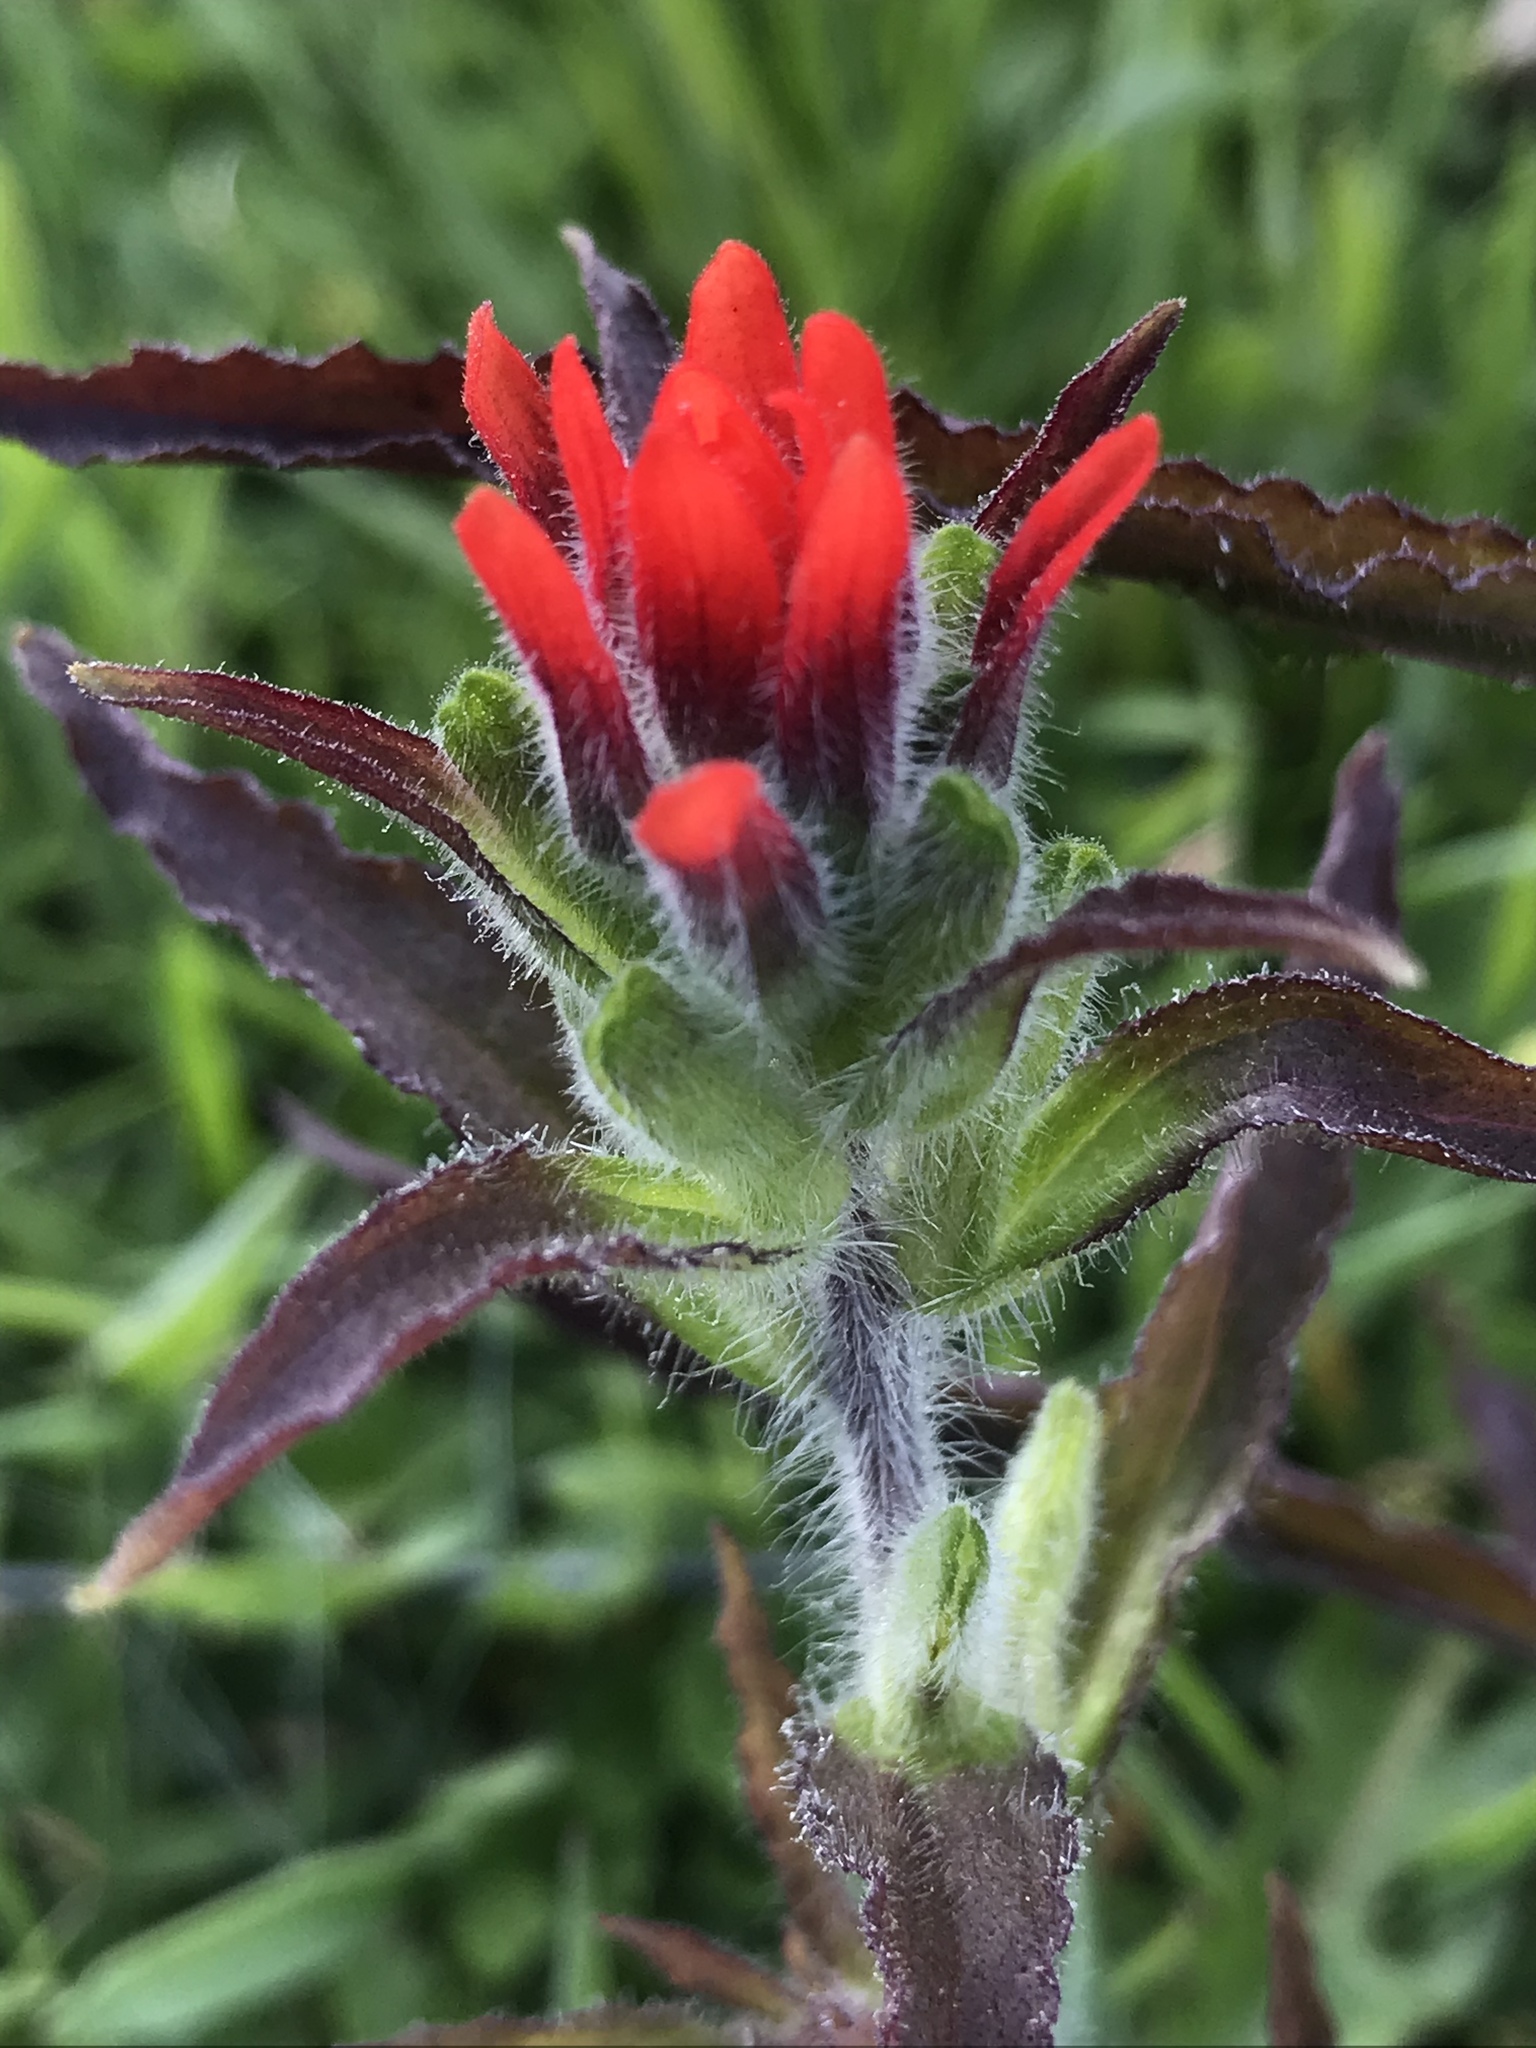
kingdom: Plantae
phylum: Tracheophyta
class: Magnoliopsida
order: Lamiales
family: Orobanchaceae
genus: Castilleja
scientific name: Castilleja arvensis
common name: Indian paintbrush
